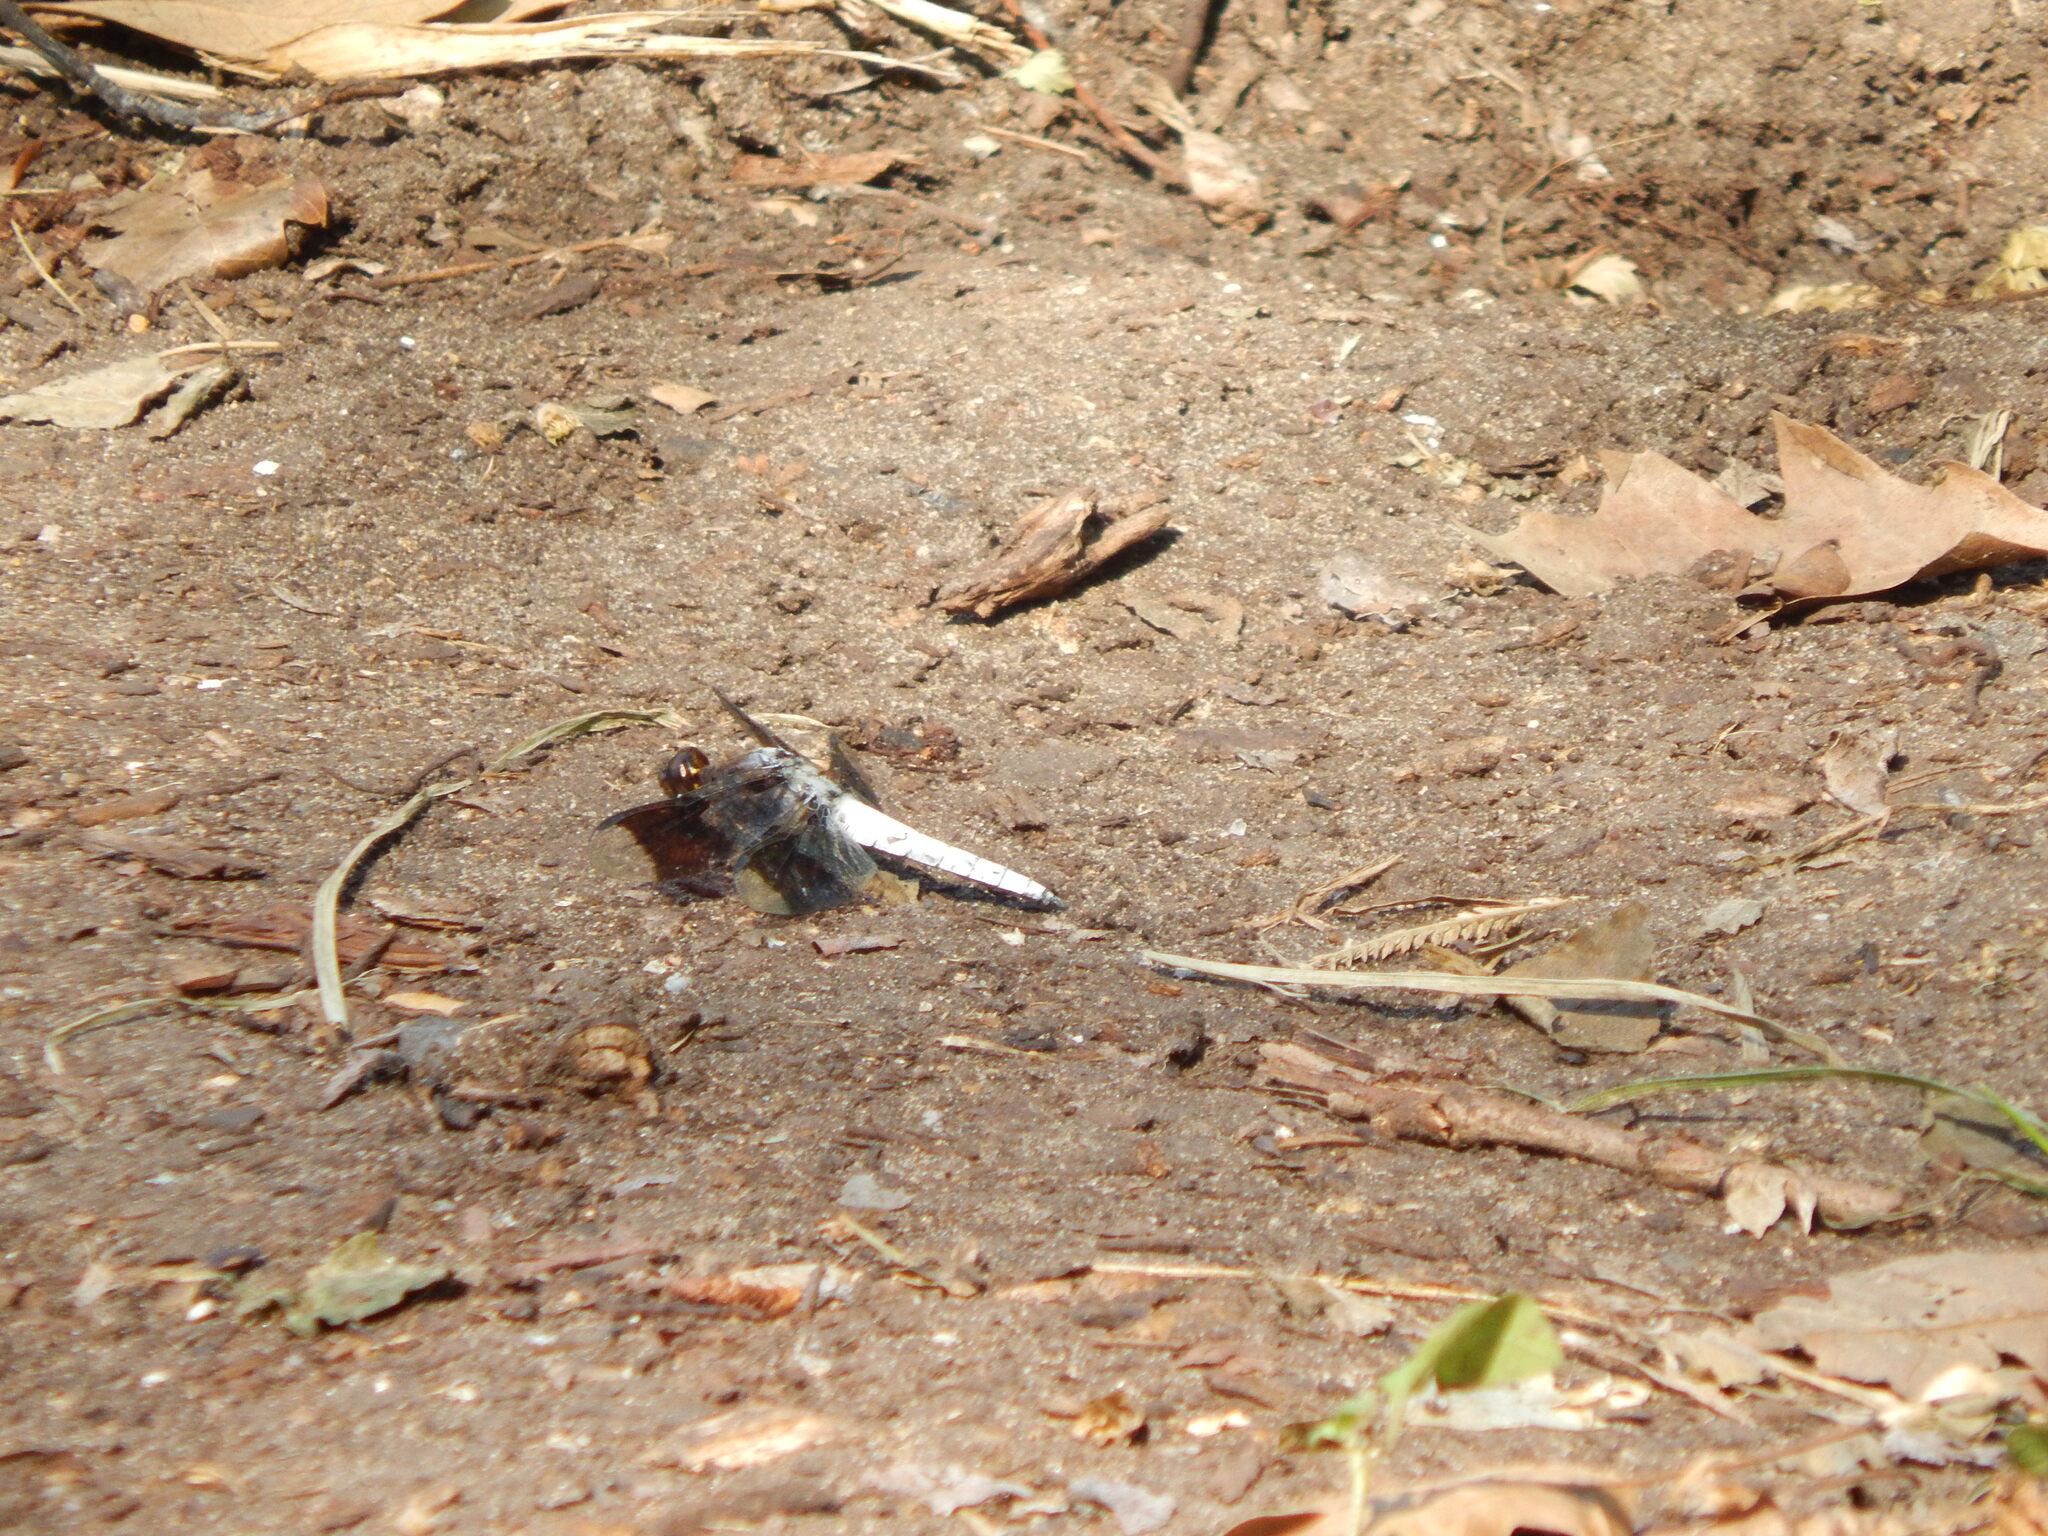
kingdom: Animalia
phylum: Arthropoda
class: Insecta
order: Odonata
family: Libellulidae
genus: Plathemis
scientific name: Plathemis lydia
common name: Common whitetail
